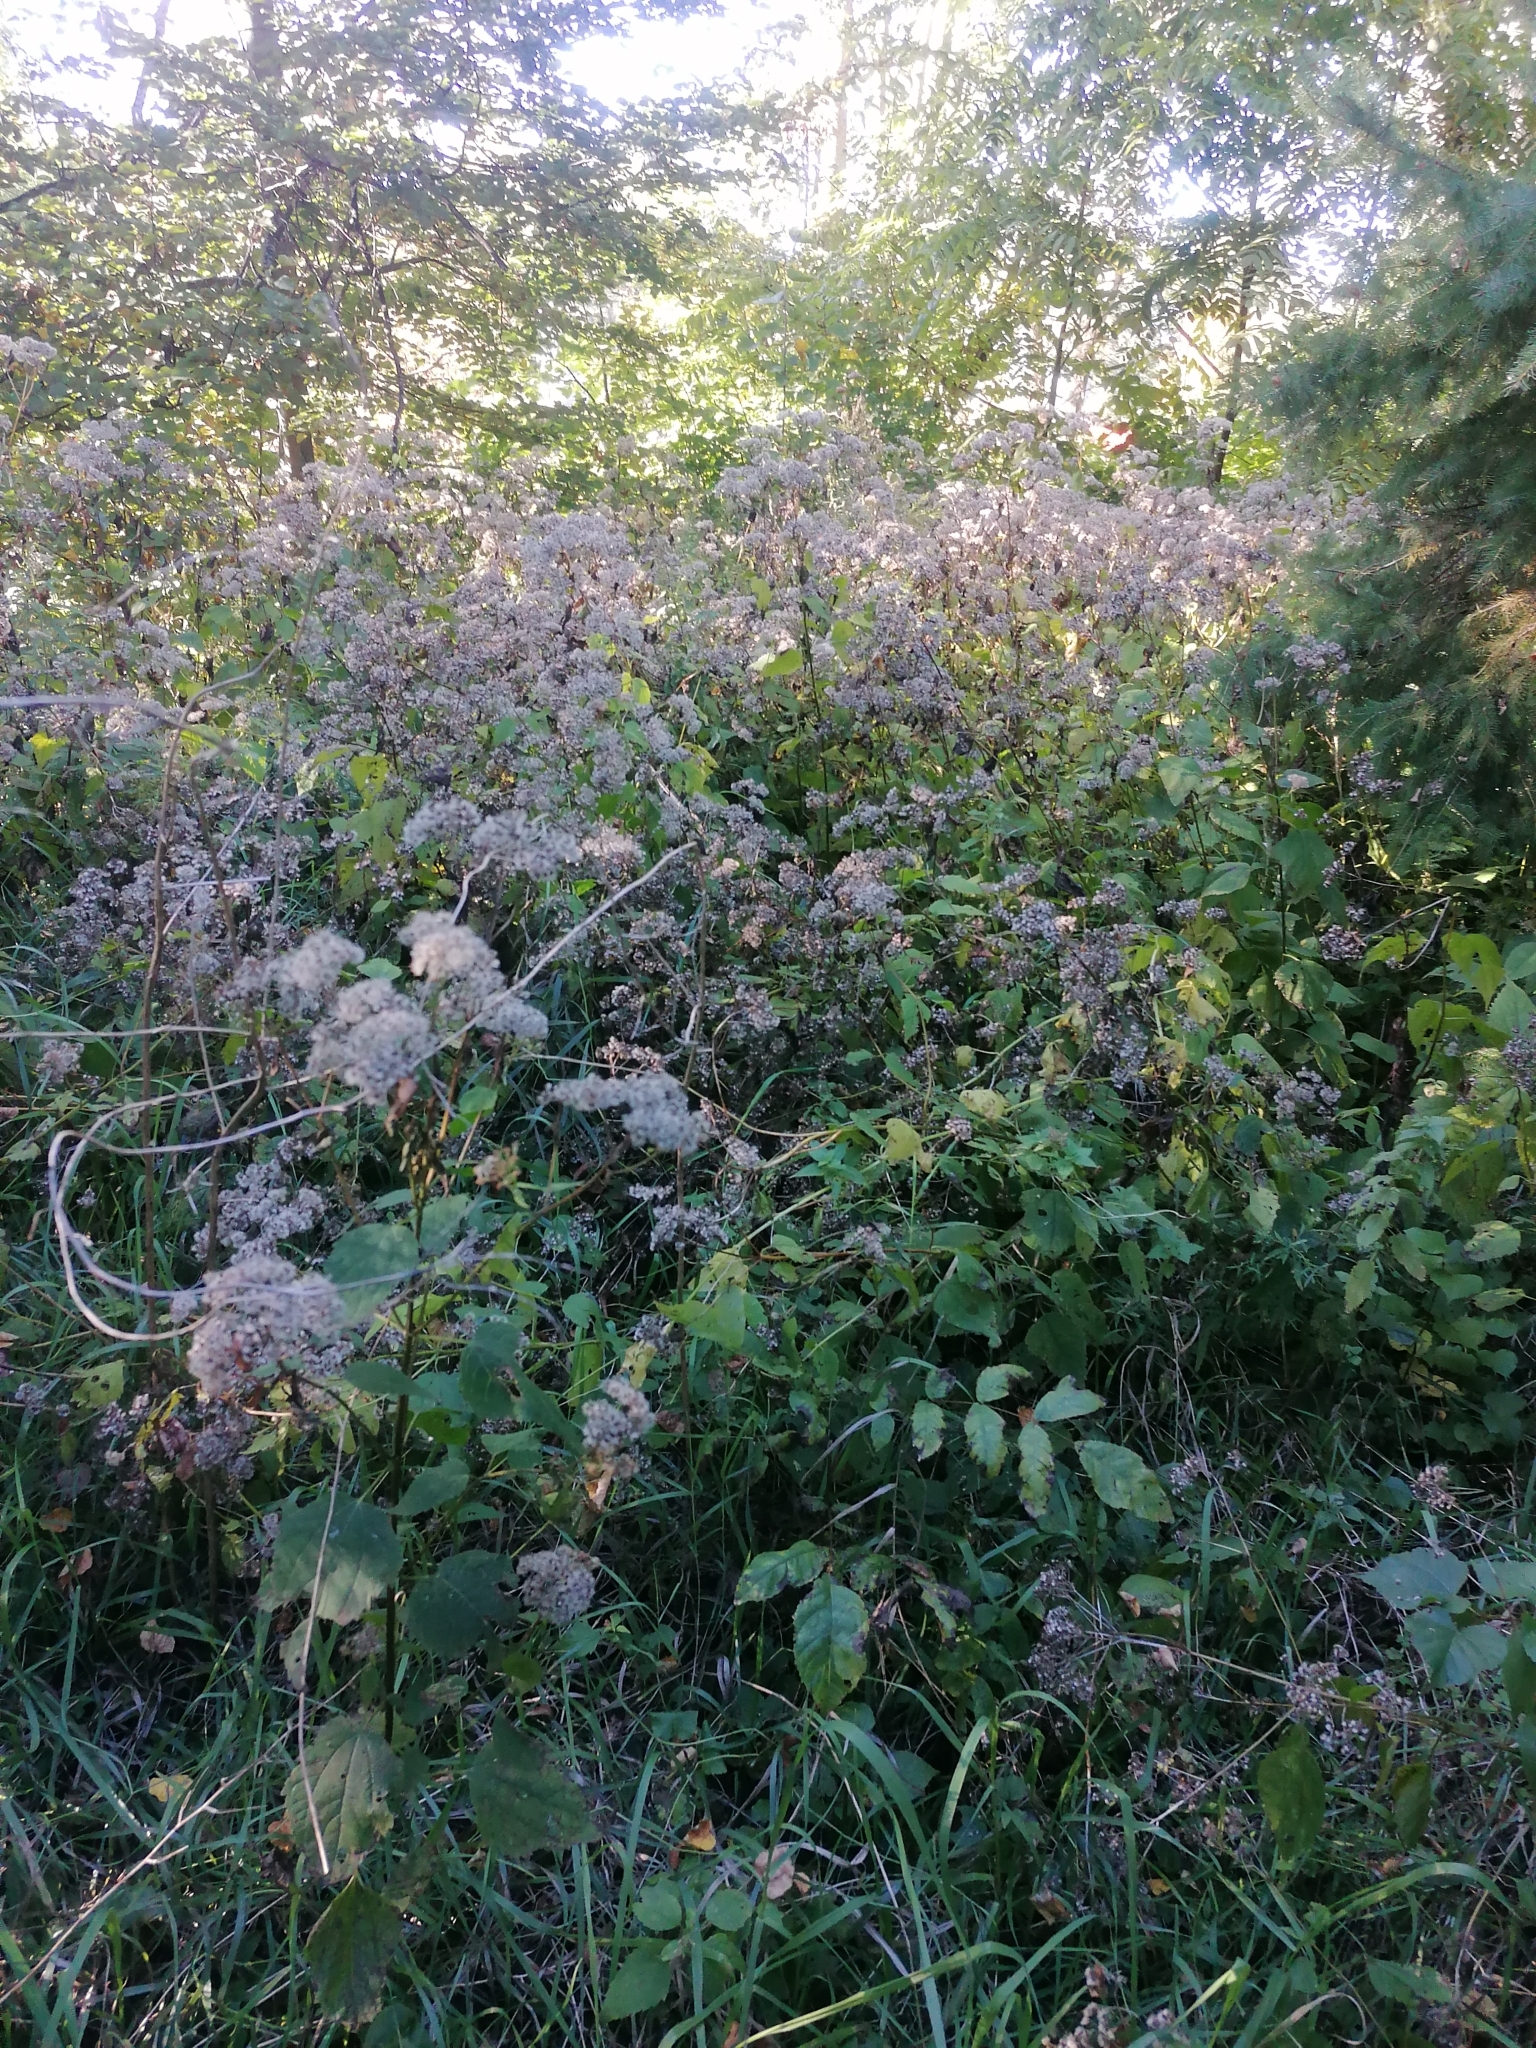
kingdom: Plantae
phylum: Tracheophyta
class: Magnoliopsida
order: Asterales
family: Asteraceae
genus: Ageratina
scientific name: Ageratina altissima
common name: White snakeroot
